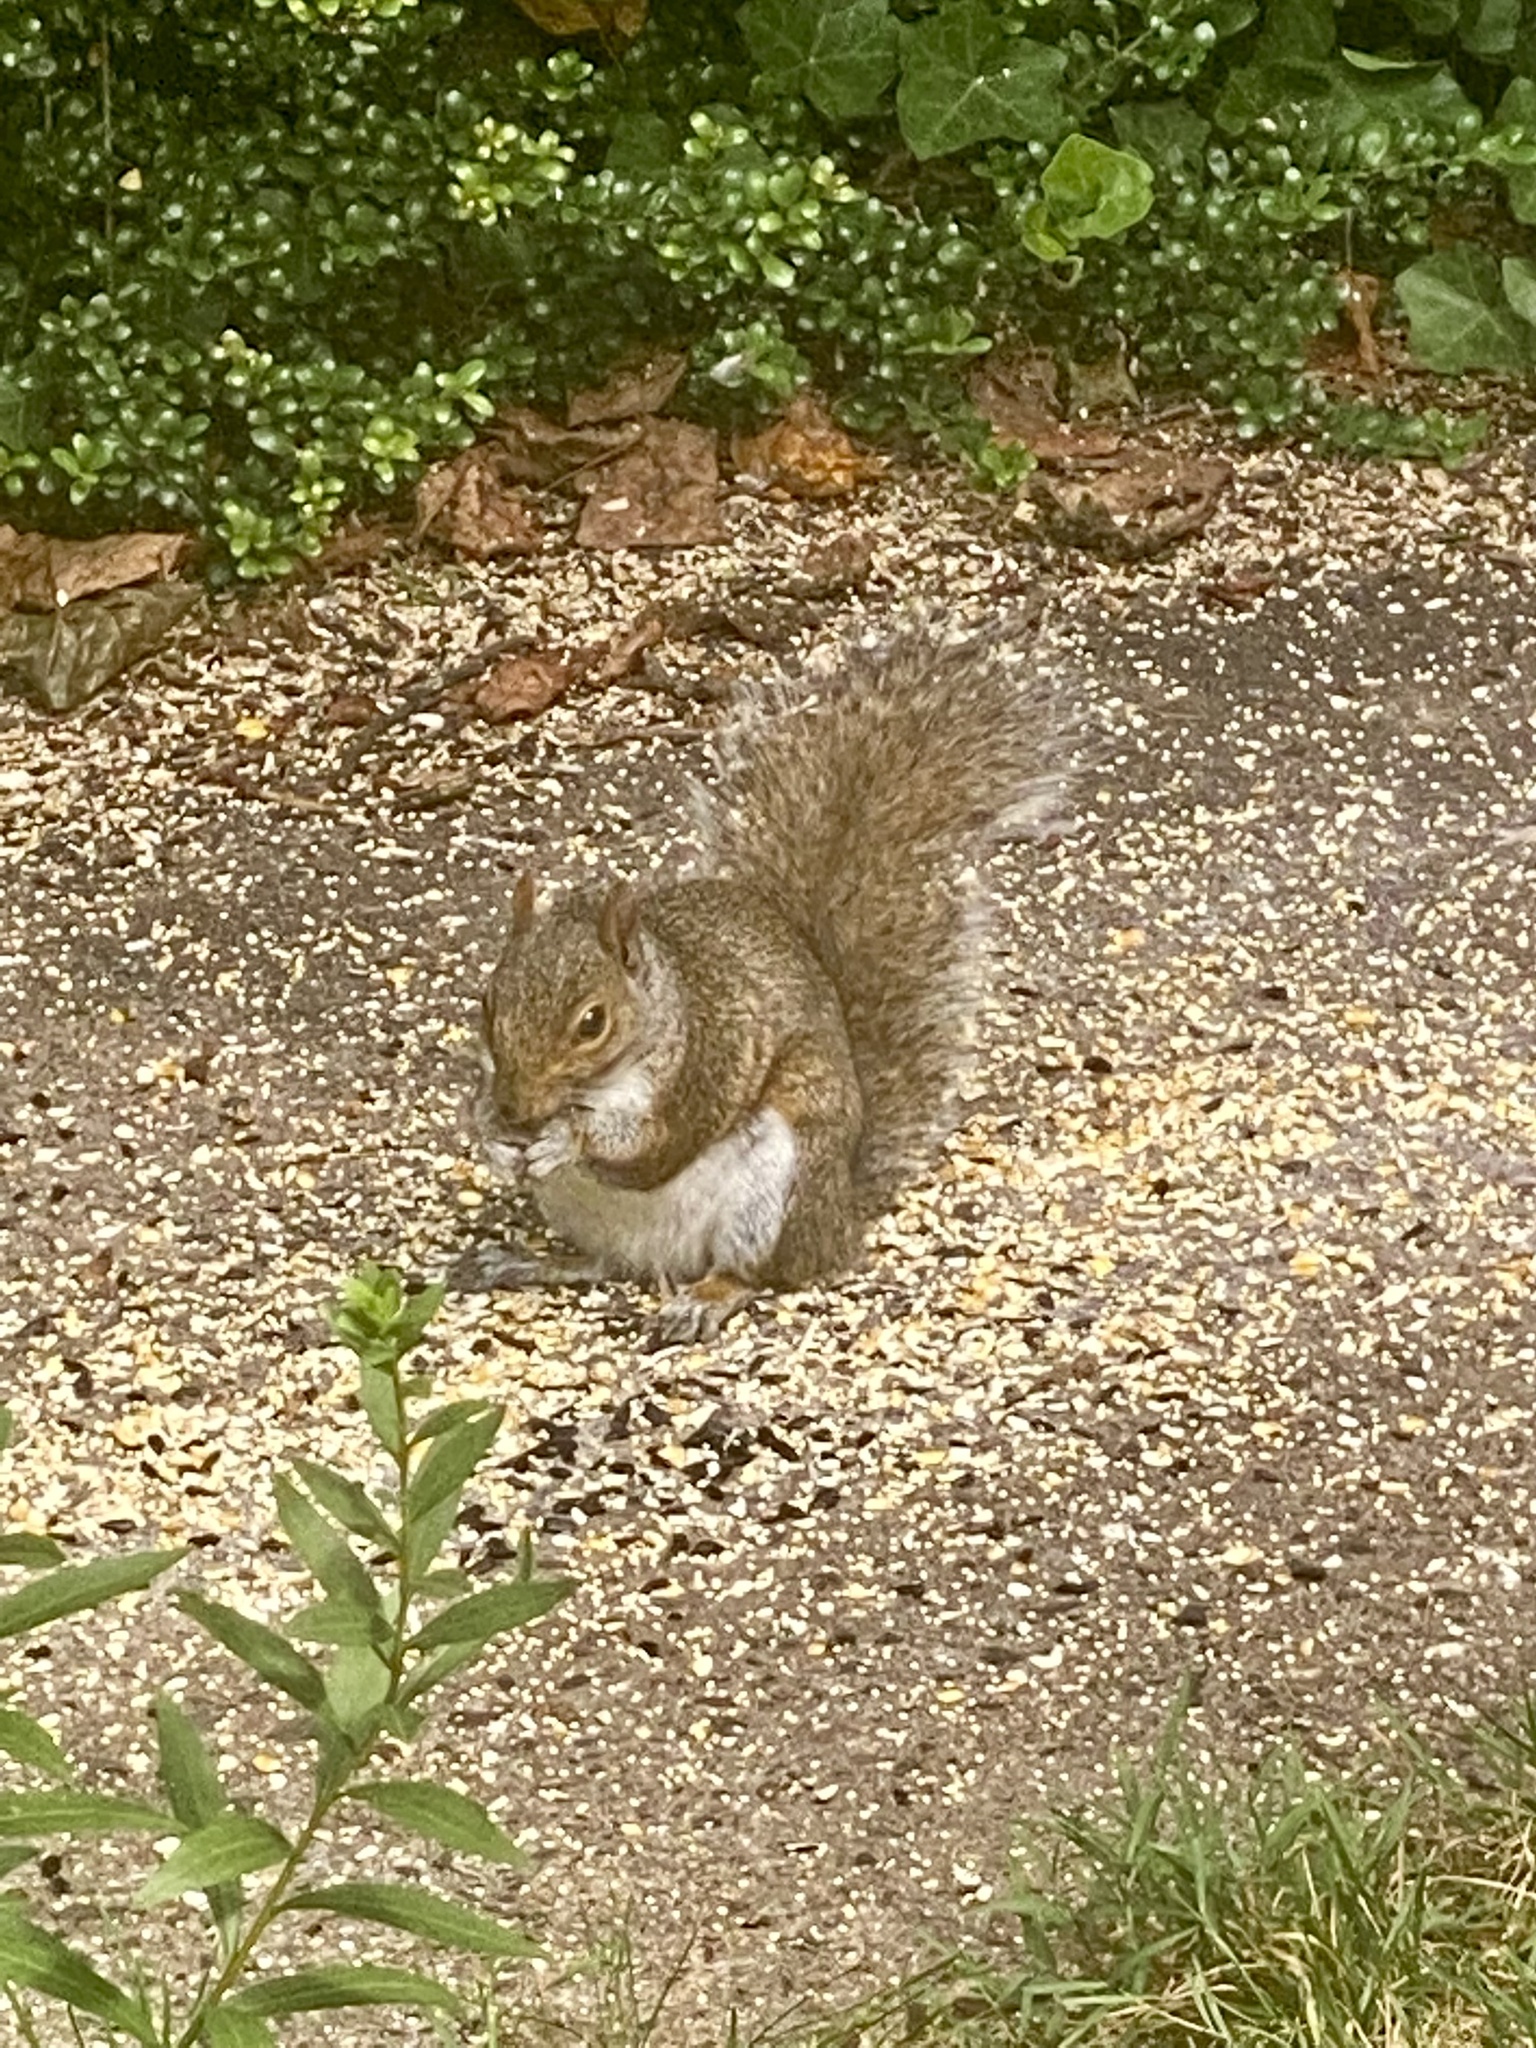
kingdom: Animalia
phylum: Chordata
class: Mammalia
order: Rodentia
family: Sciuridae
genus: Sciurus
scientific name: Sciurus carolinensis
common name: Eastern gray squirrel
